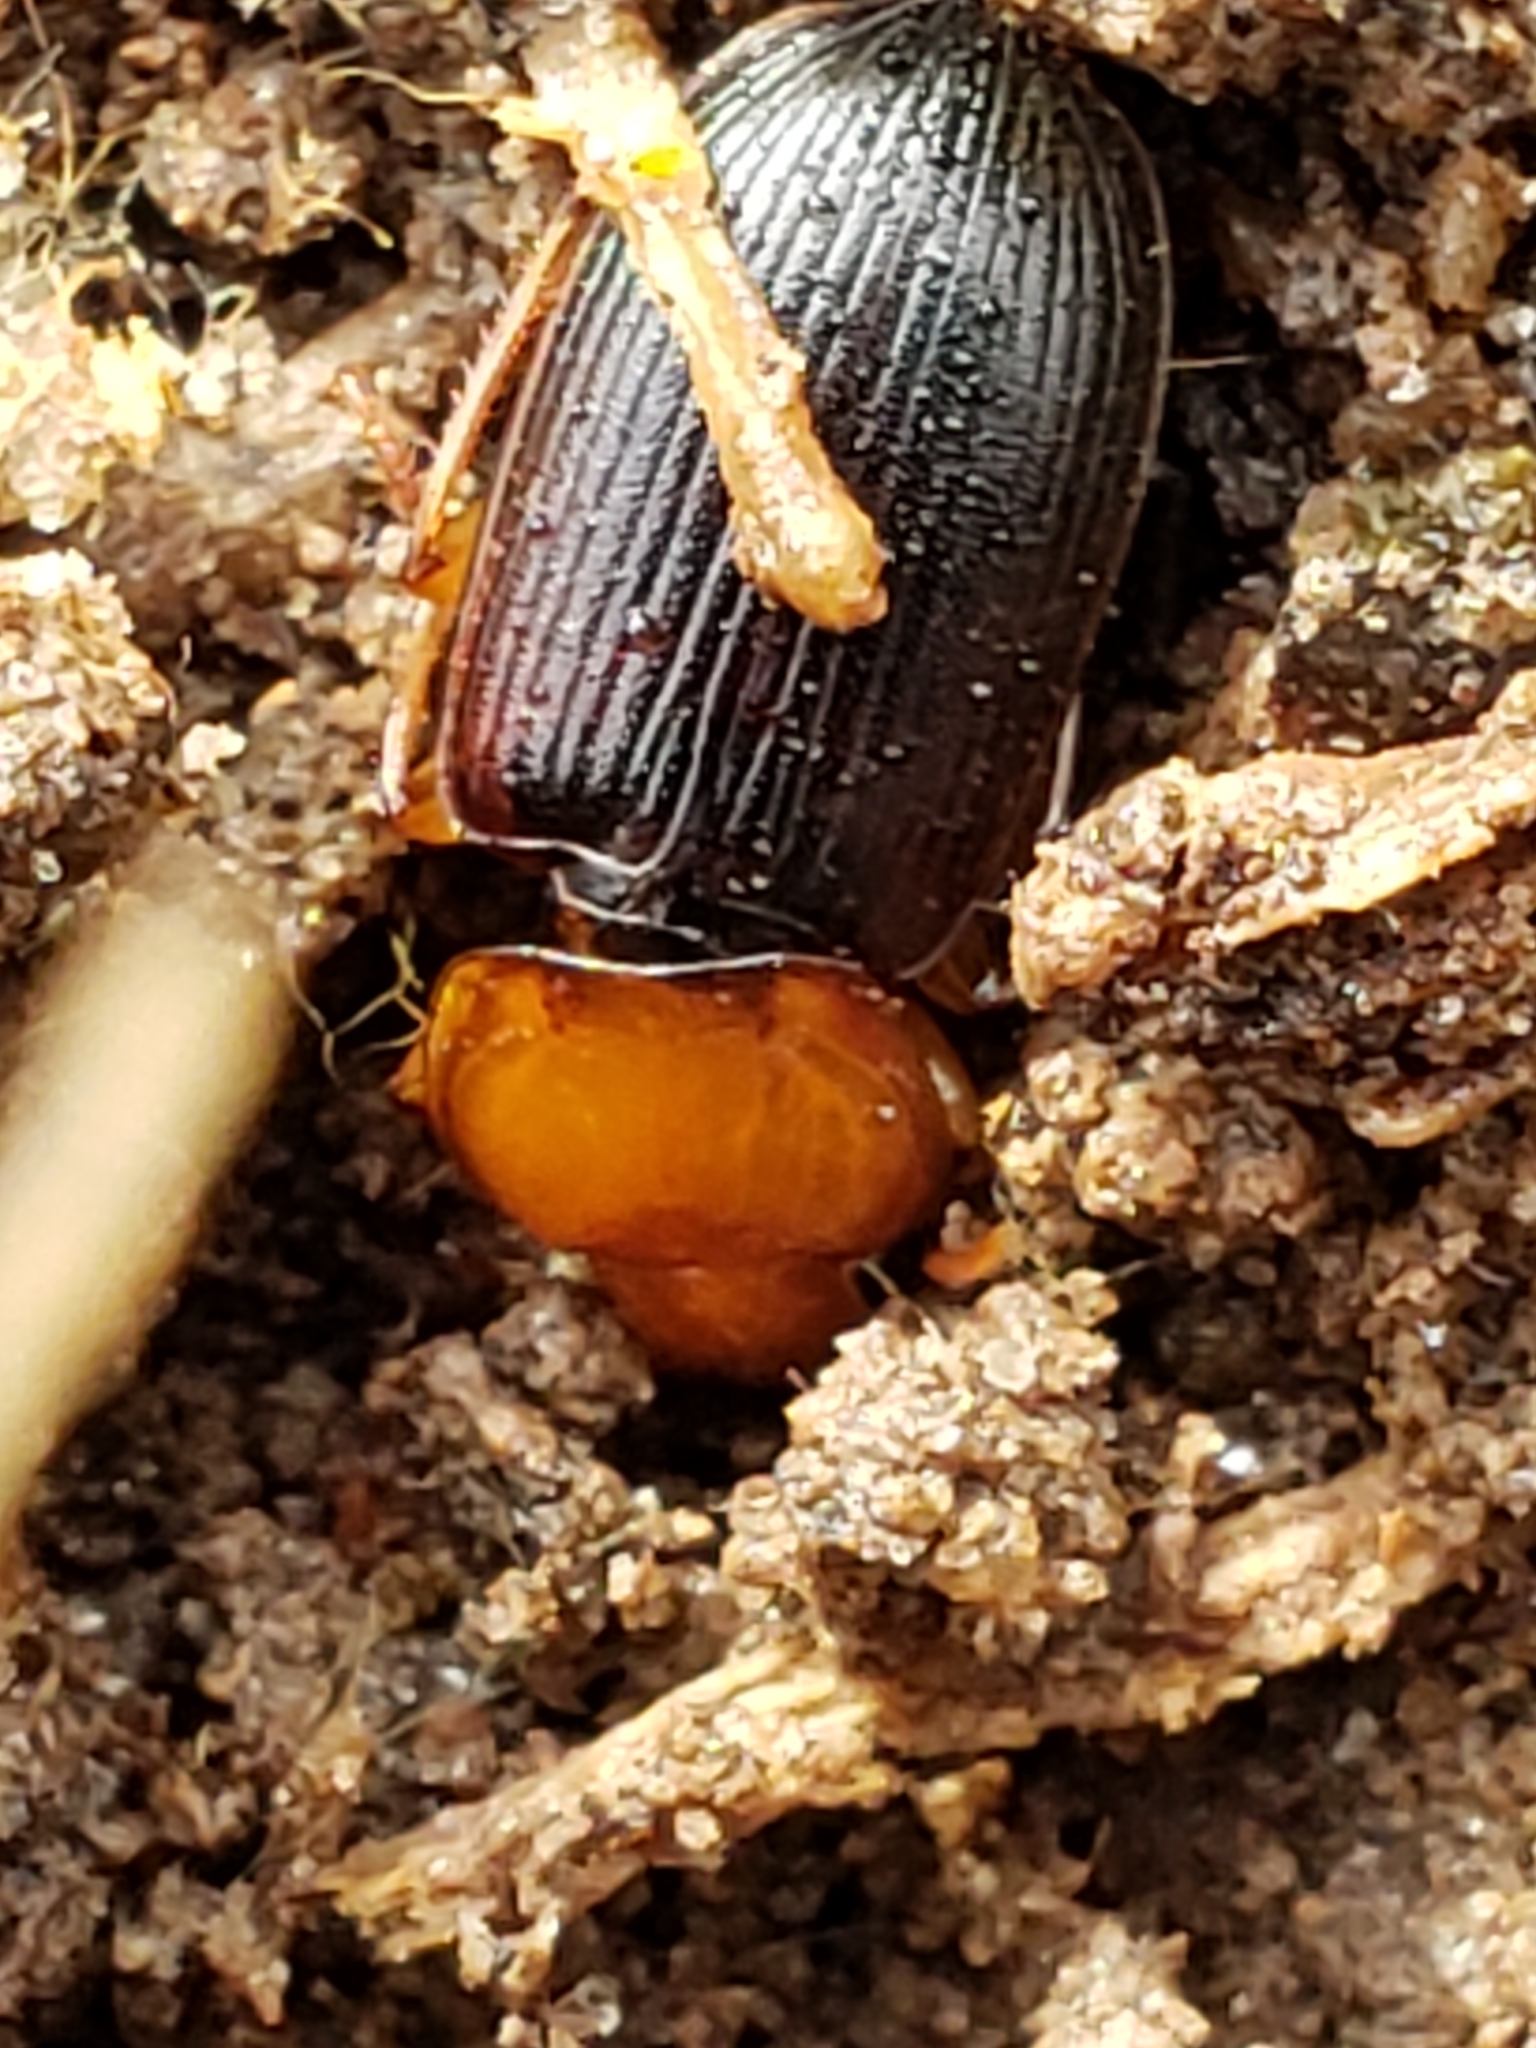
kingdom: Animalia
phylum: Arthropoda
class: Insecta
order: Coleoptera
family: Carabidae
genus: Amphasia
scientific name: Amphasia interstitialis
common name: Red-headed ground beetle
